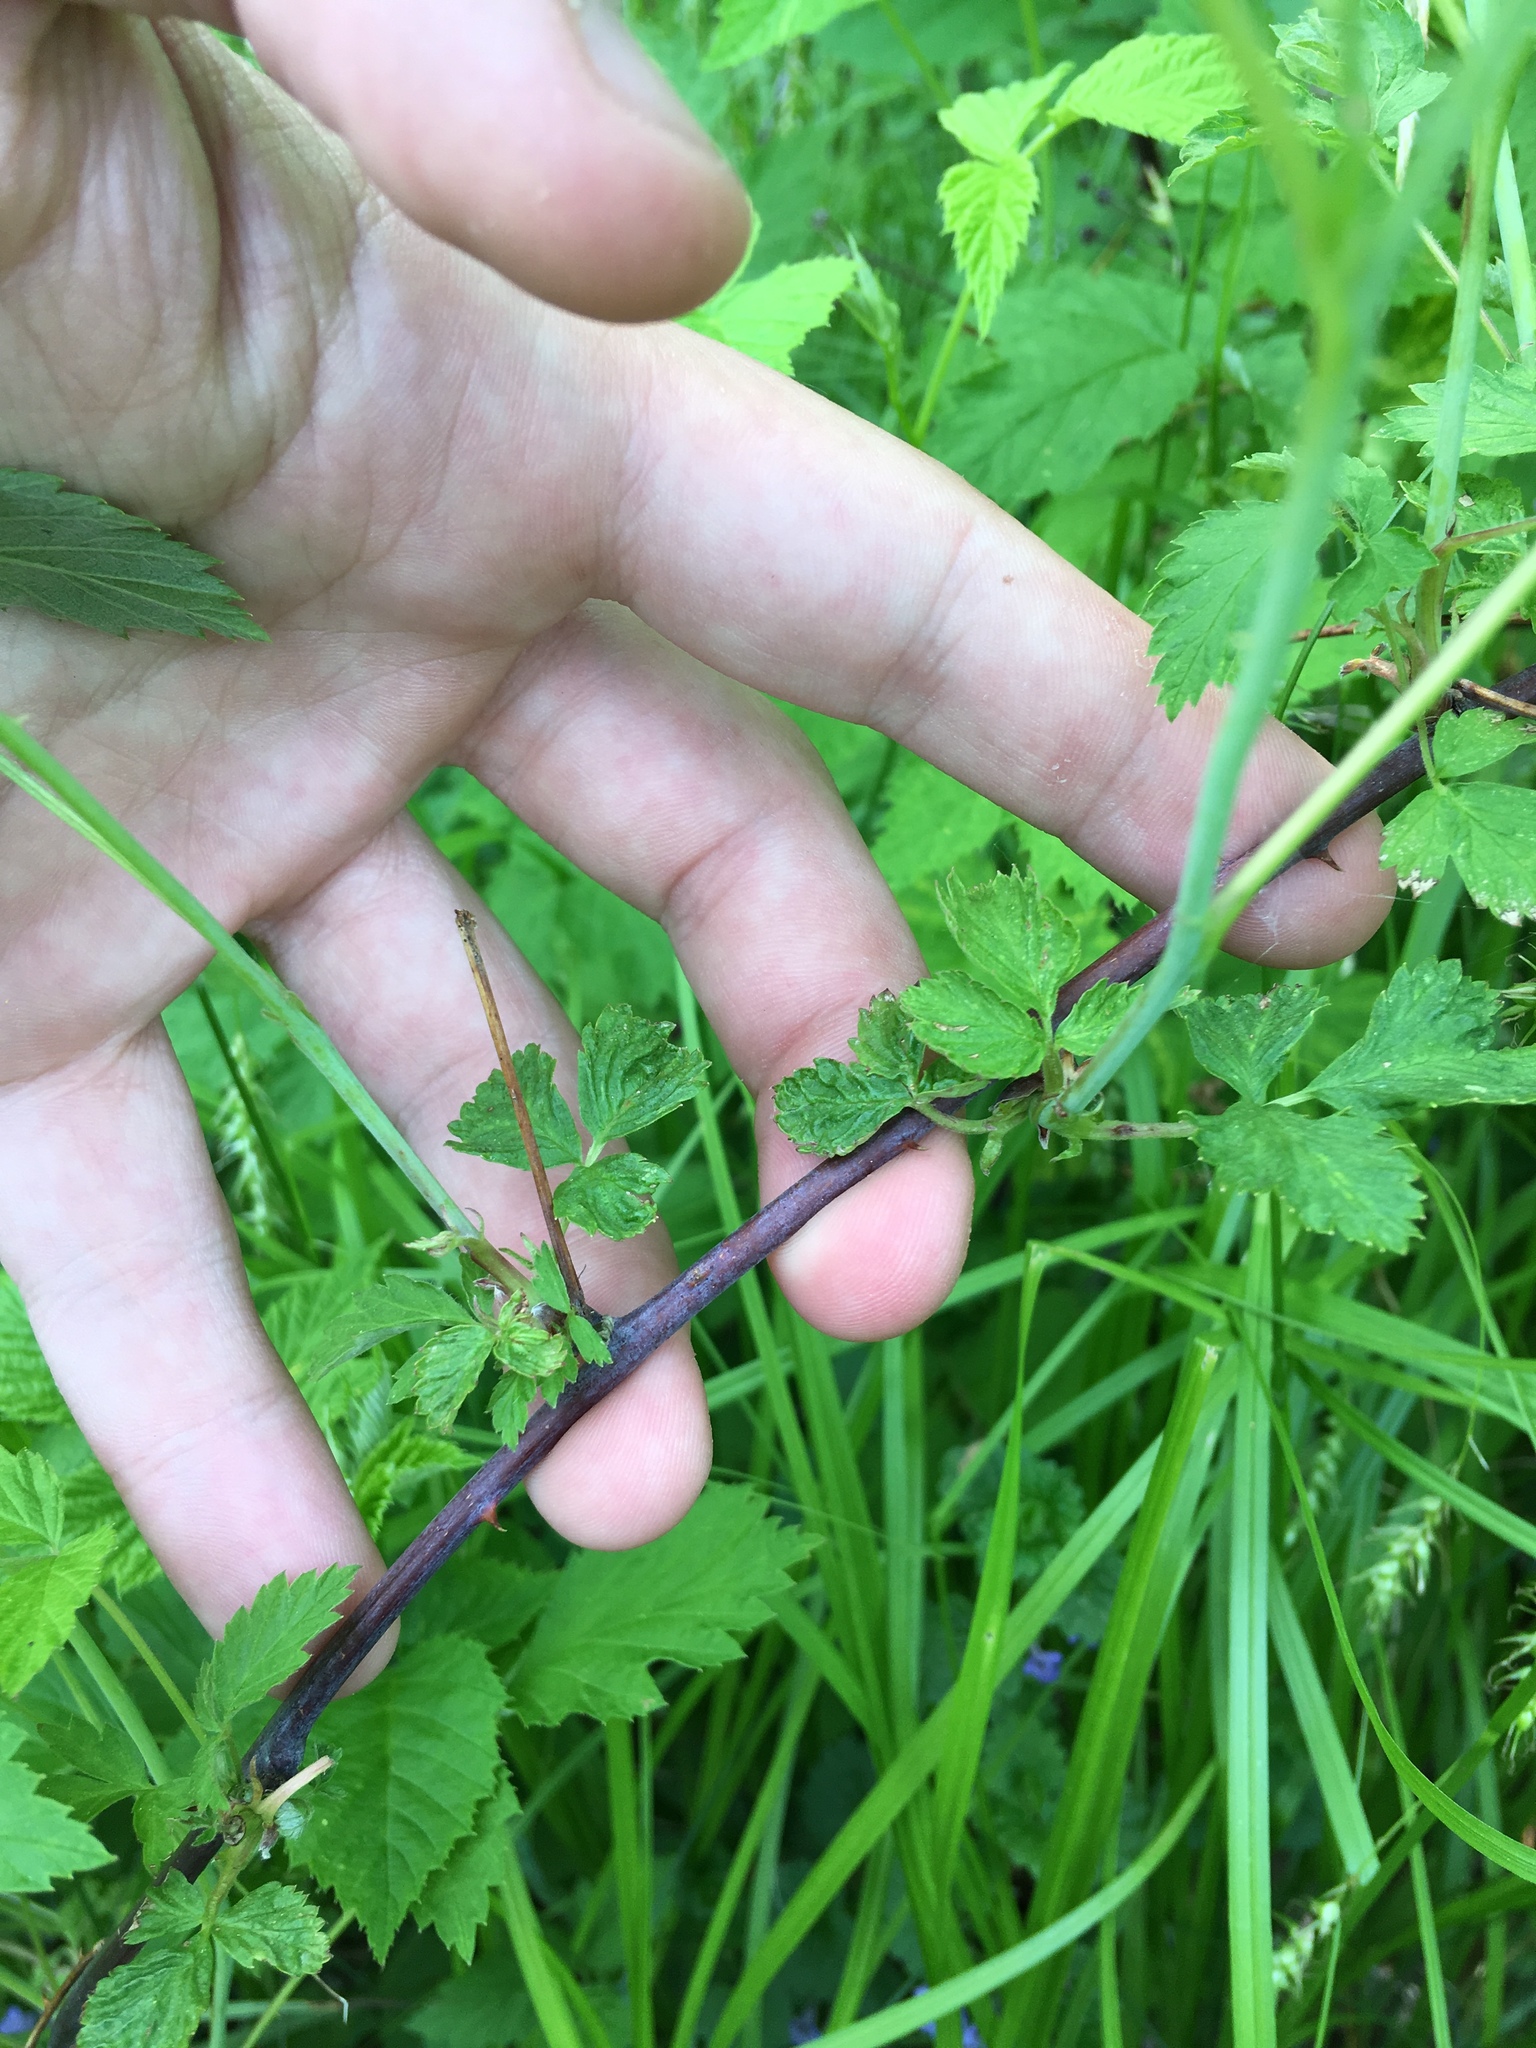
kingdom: Plantae
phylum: Tracheophyta
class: Magnoliopsida
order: Rosales
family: Rosaceae
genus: Rubus
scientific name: Rubus occidentalis
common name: Black raspberry
